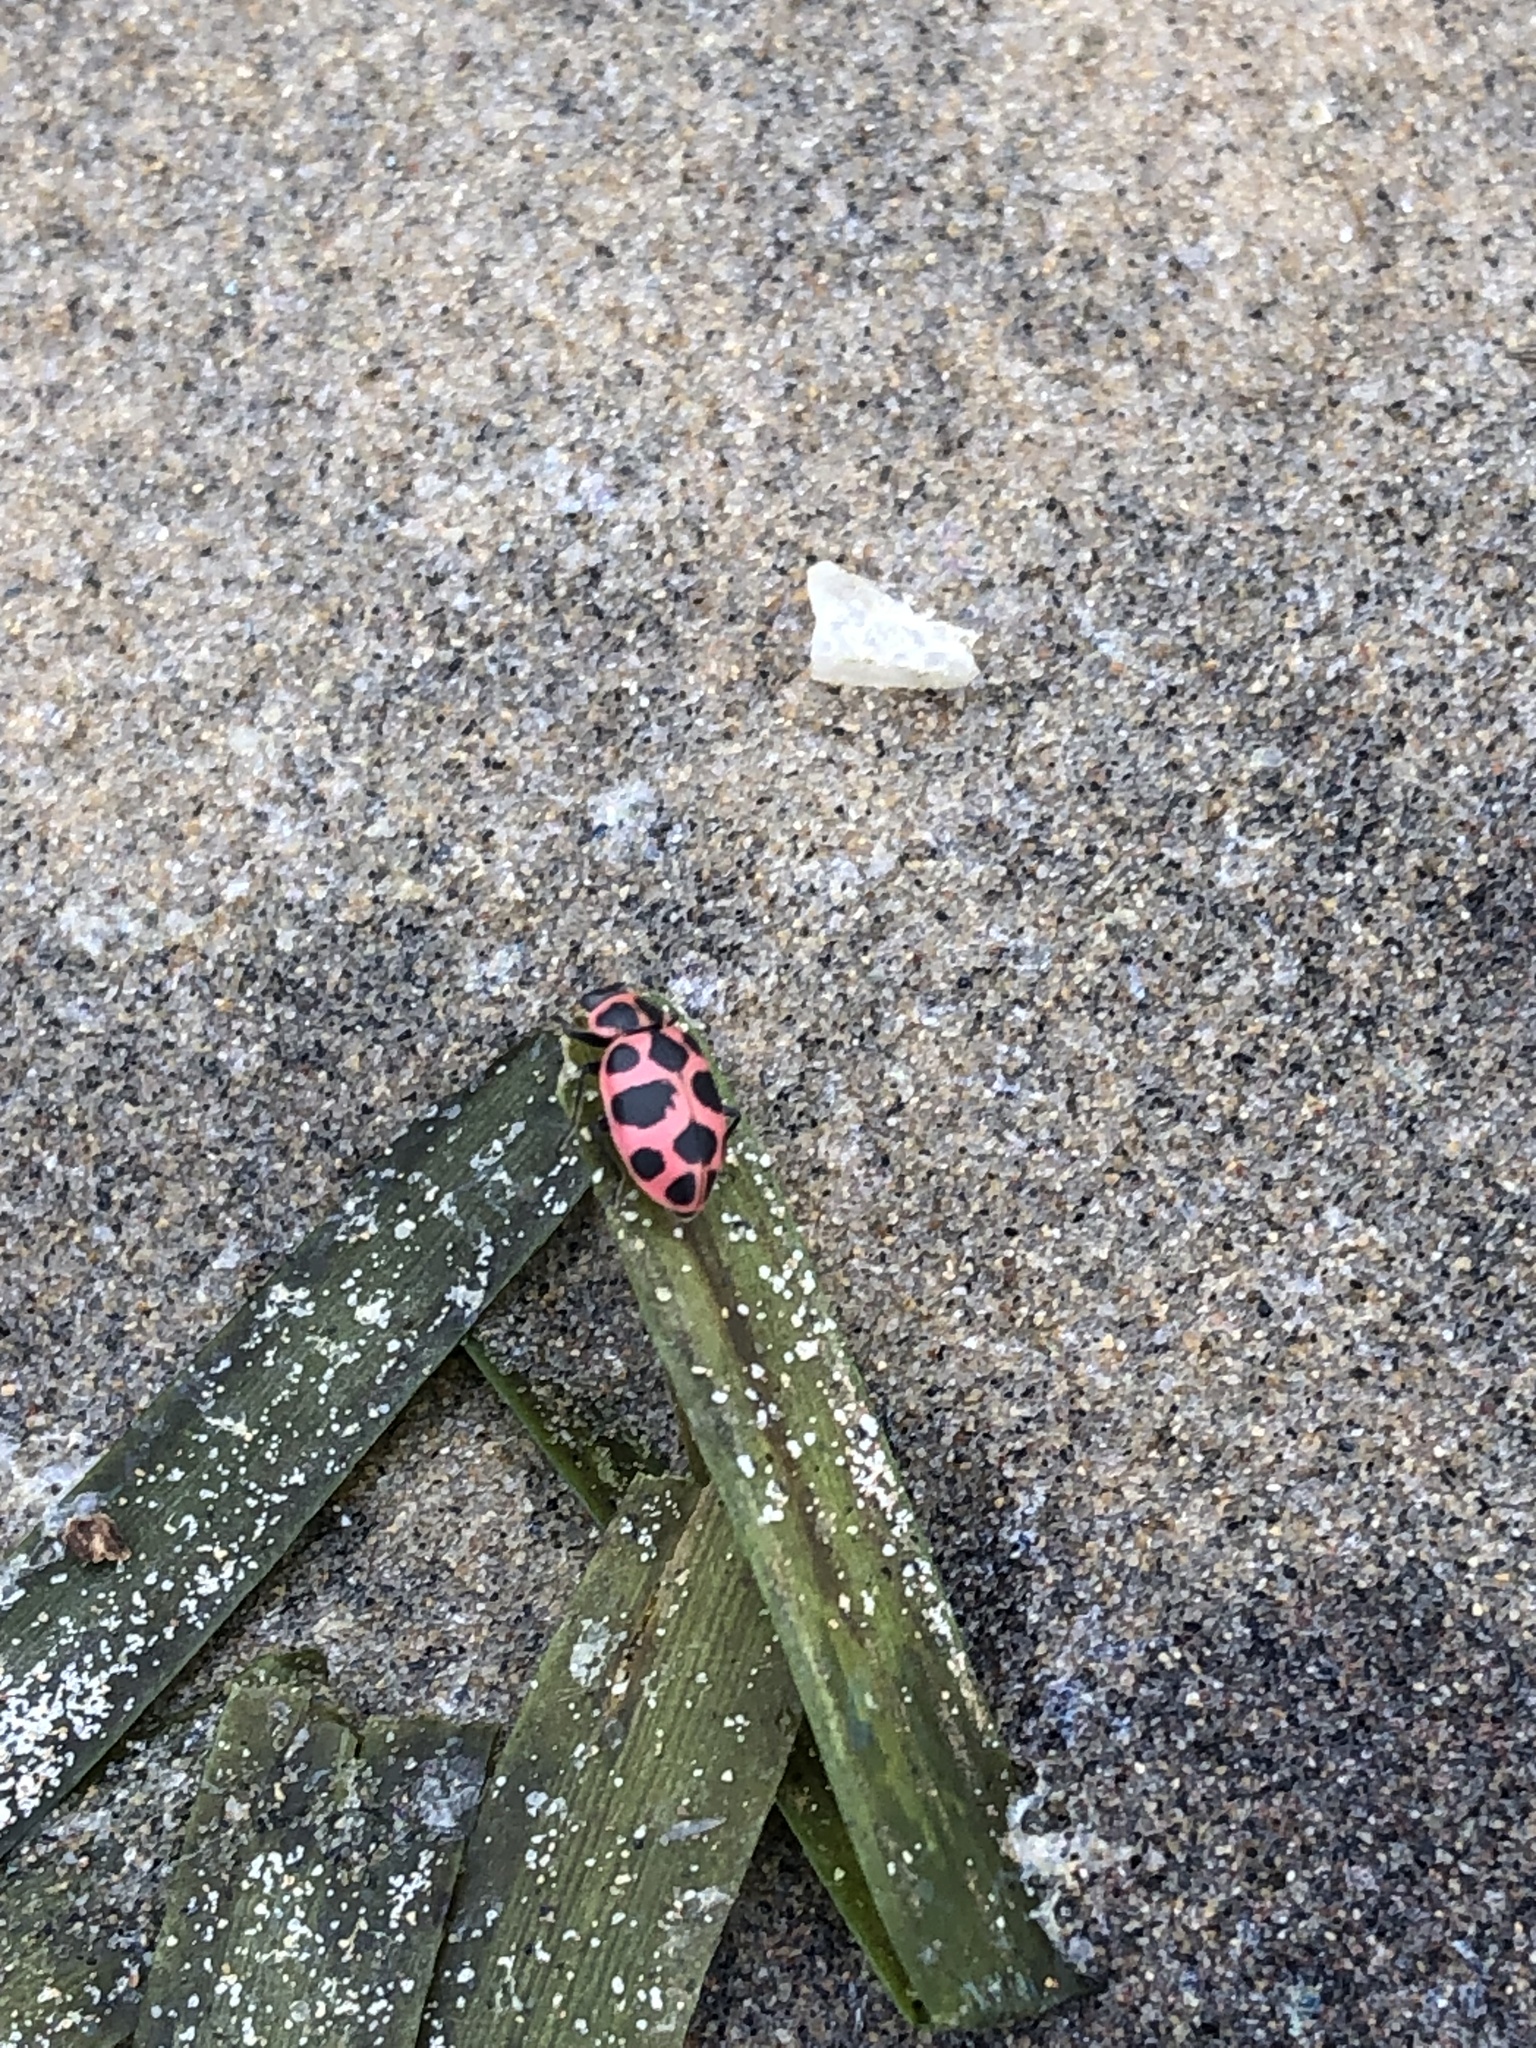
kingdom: Animalia
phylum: Arthropoda
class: Insecta
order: Coleoptera
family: Coccinellidae
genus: Coleomegilla
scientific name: Coleomegilla maculata
